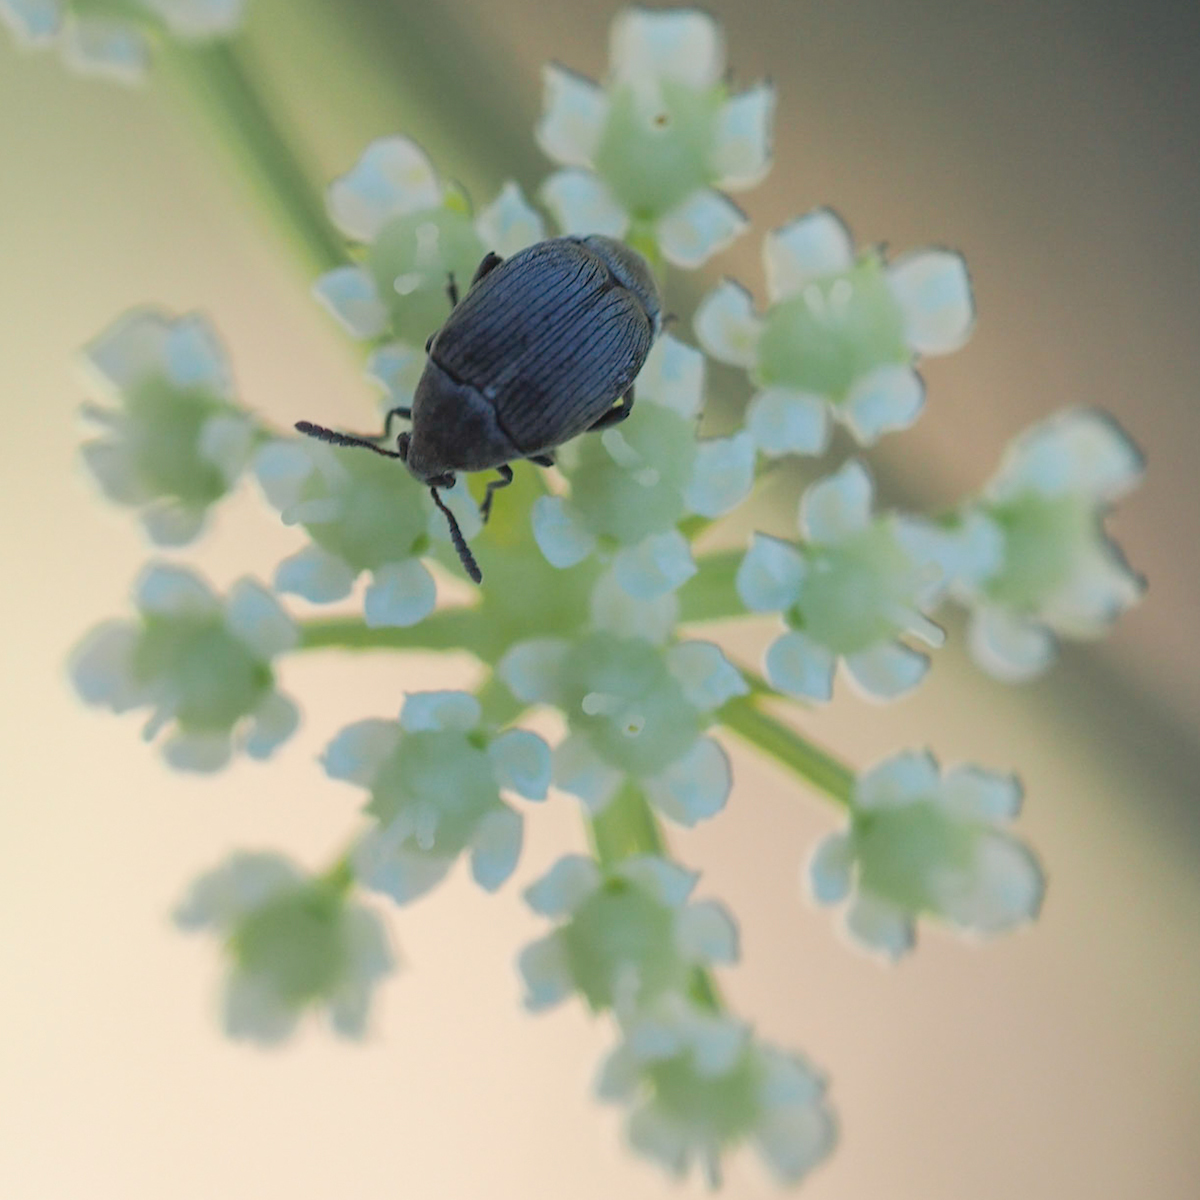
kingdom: Animalia
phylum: Arthropoda
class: Insecta
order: Coleoptera
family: Chrysomelidae
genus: Bruchidius
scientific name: Bruchidius villosus
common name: Scotch broom bruchid
